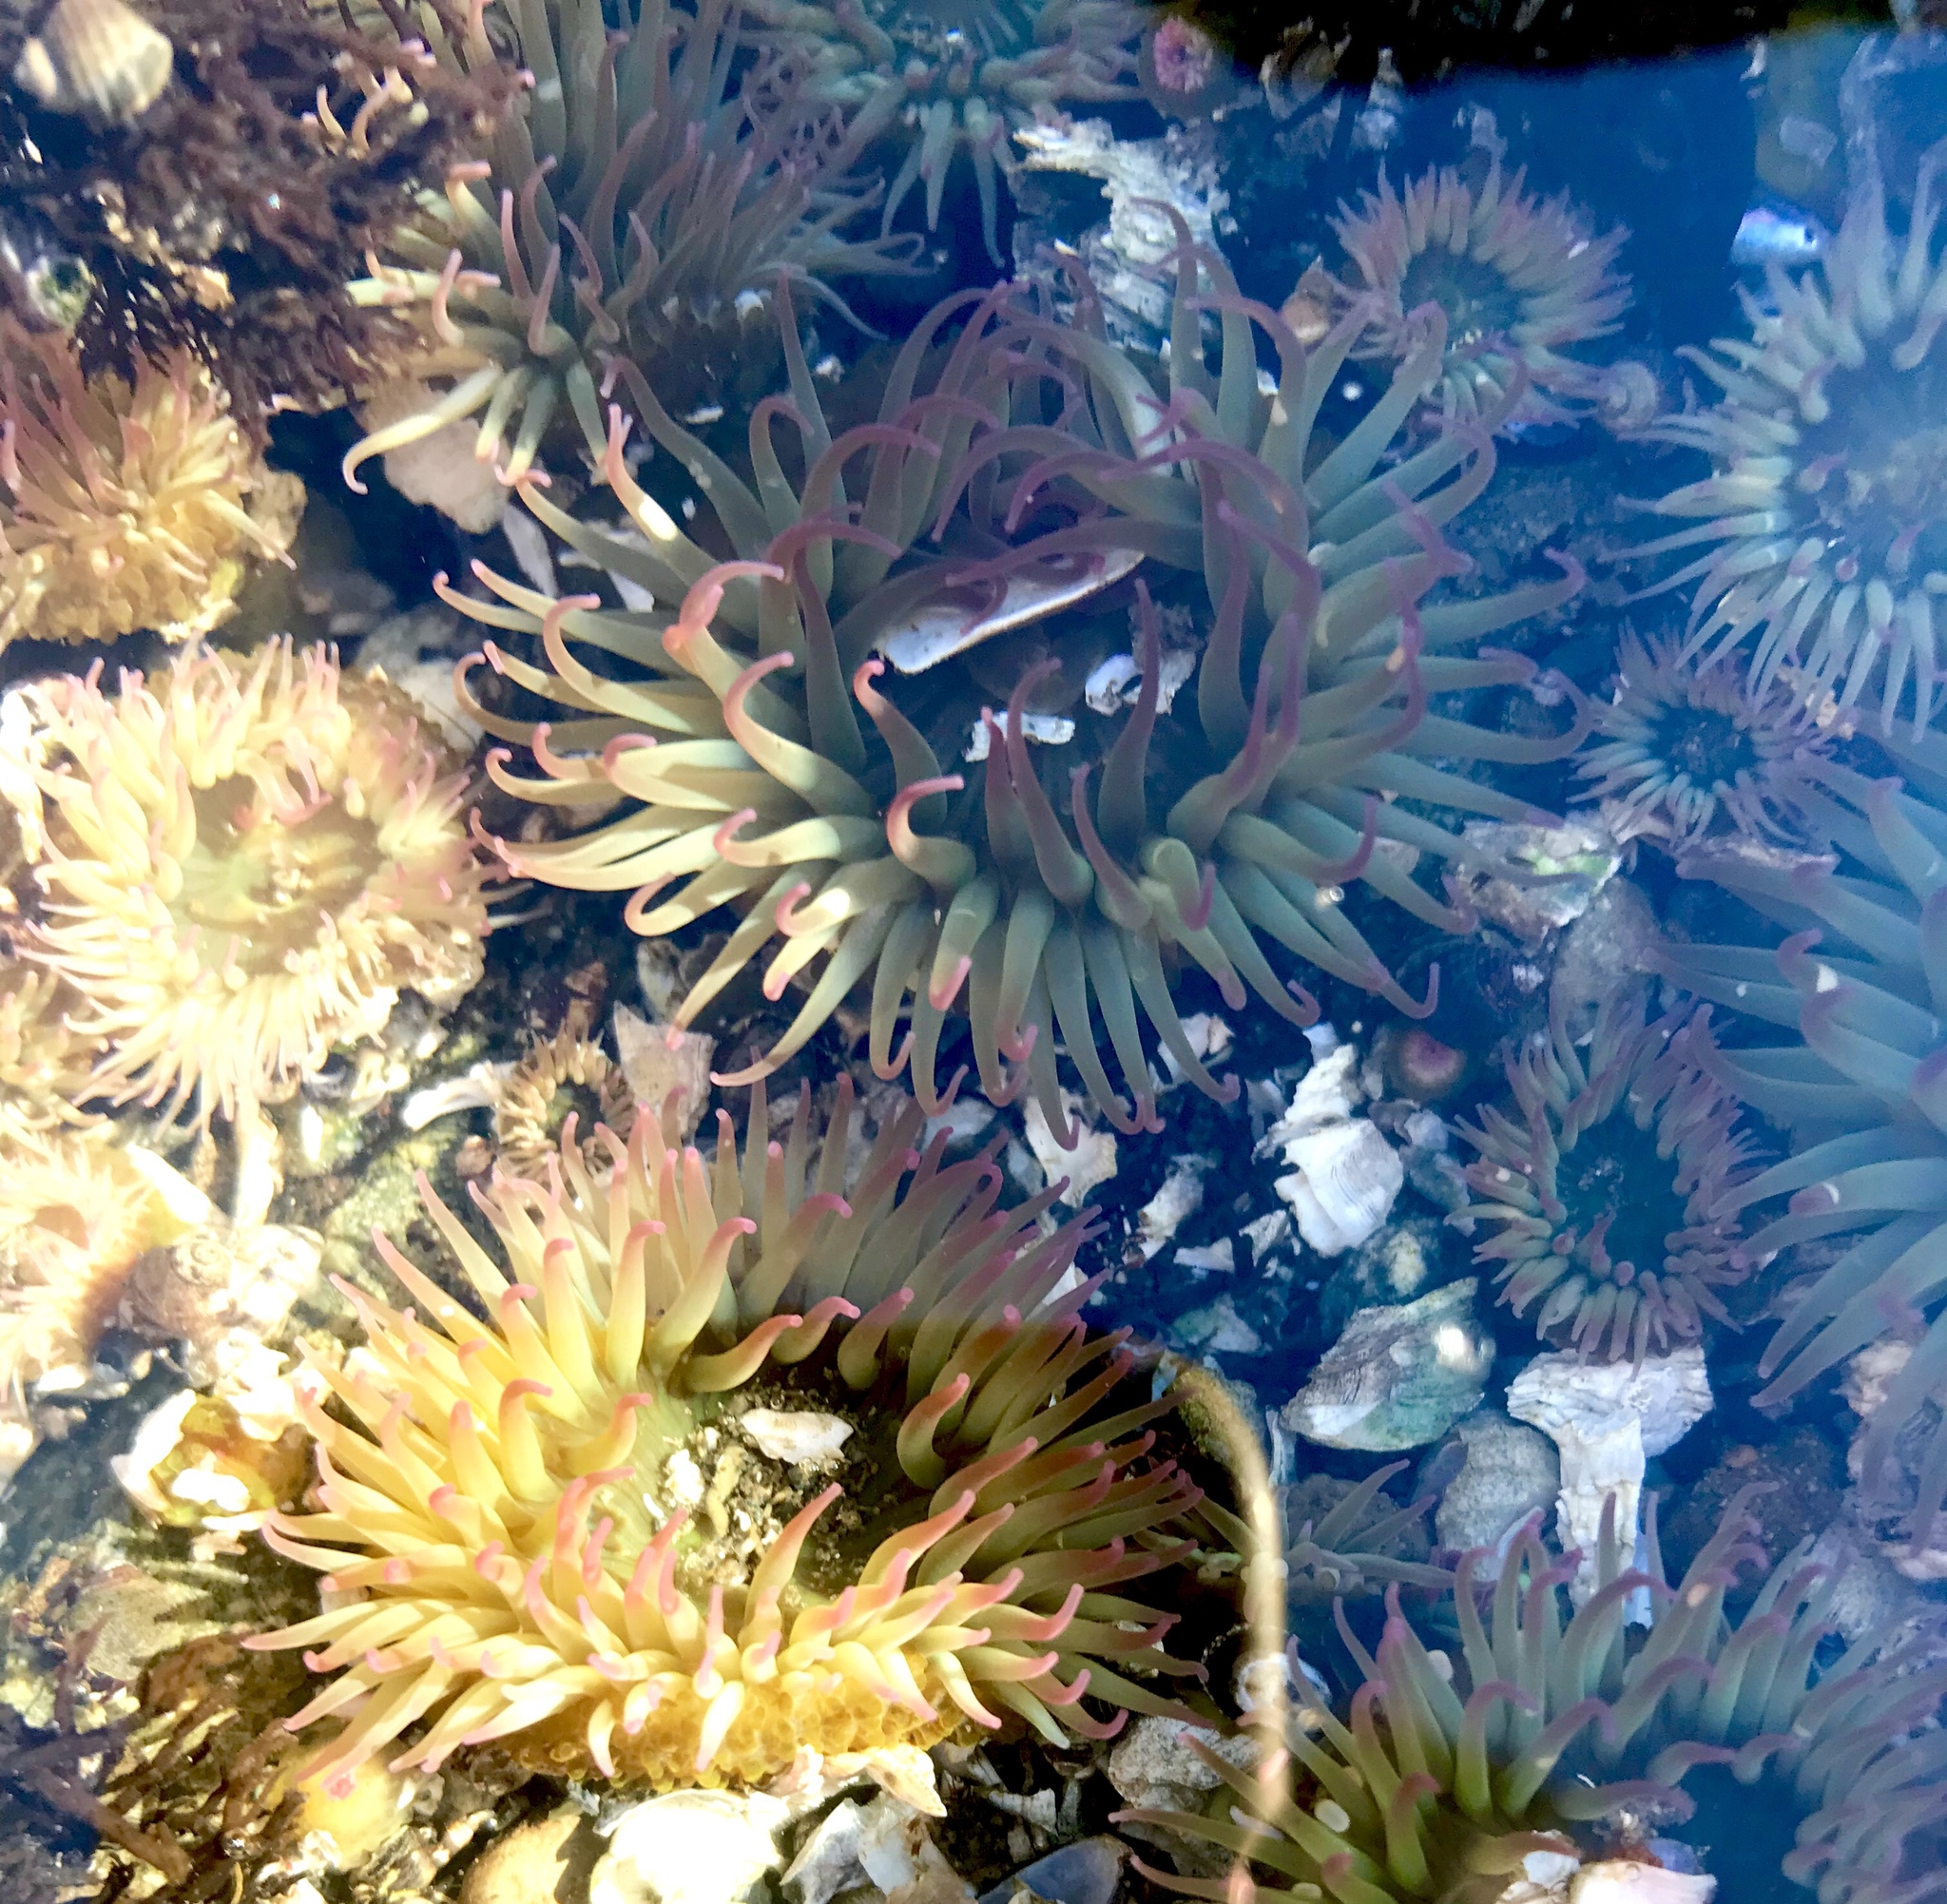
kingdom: Animalia
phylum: Cnidaria
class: Anthozoa
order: Actiniaria
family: Actiniidae
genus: Anthopleura
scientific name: Anthopleura elegantissima
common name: Clonal anemone
